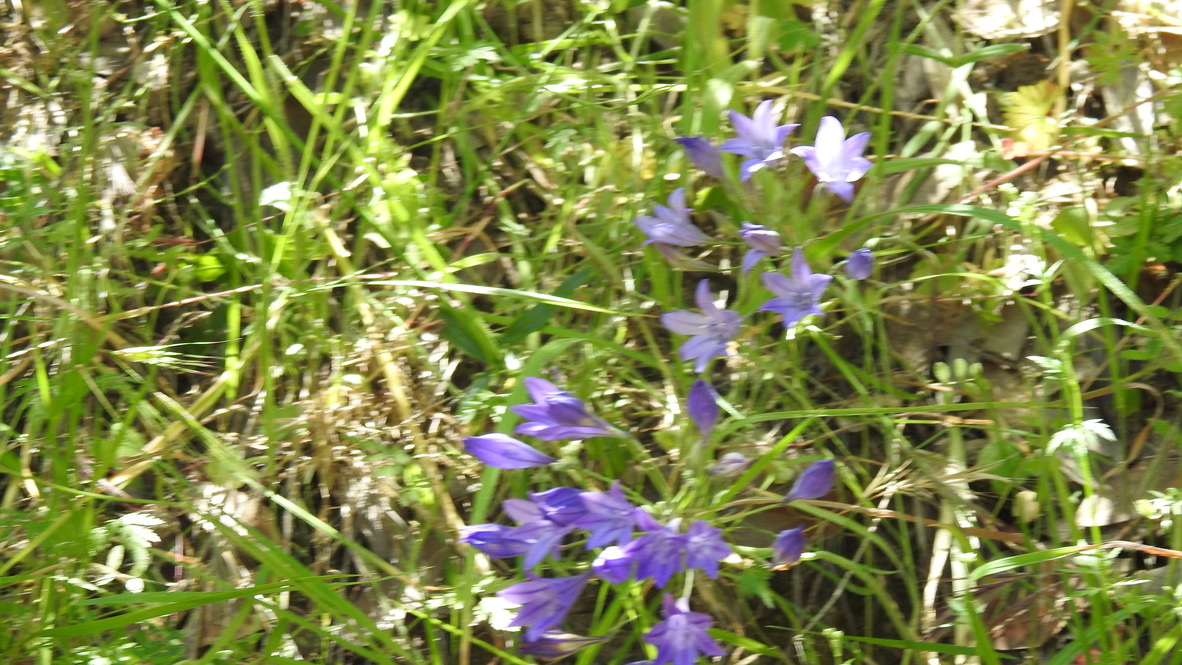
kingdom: Plantae
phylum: Tracheophyta
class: Liliopsida
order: Asparagales
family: Asparagaceae
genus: Triteleia
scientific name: Triteleia laxa
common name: Triplet-lily
